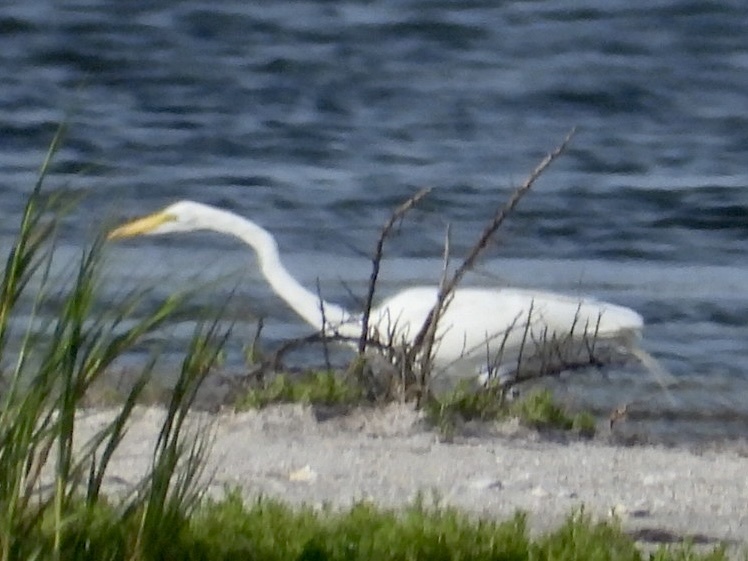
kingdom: Animalia
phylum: Chordata
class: Aves
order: Pelecaniformes
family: Ardeidae
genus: Ardea
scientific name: Ardea alba
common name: Great egret
